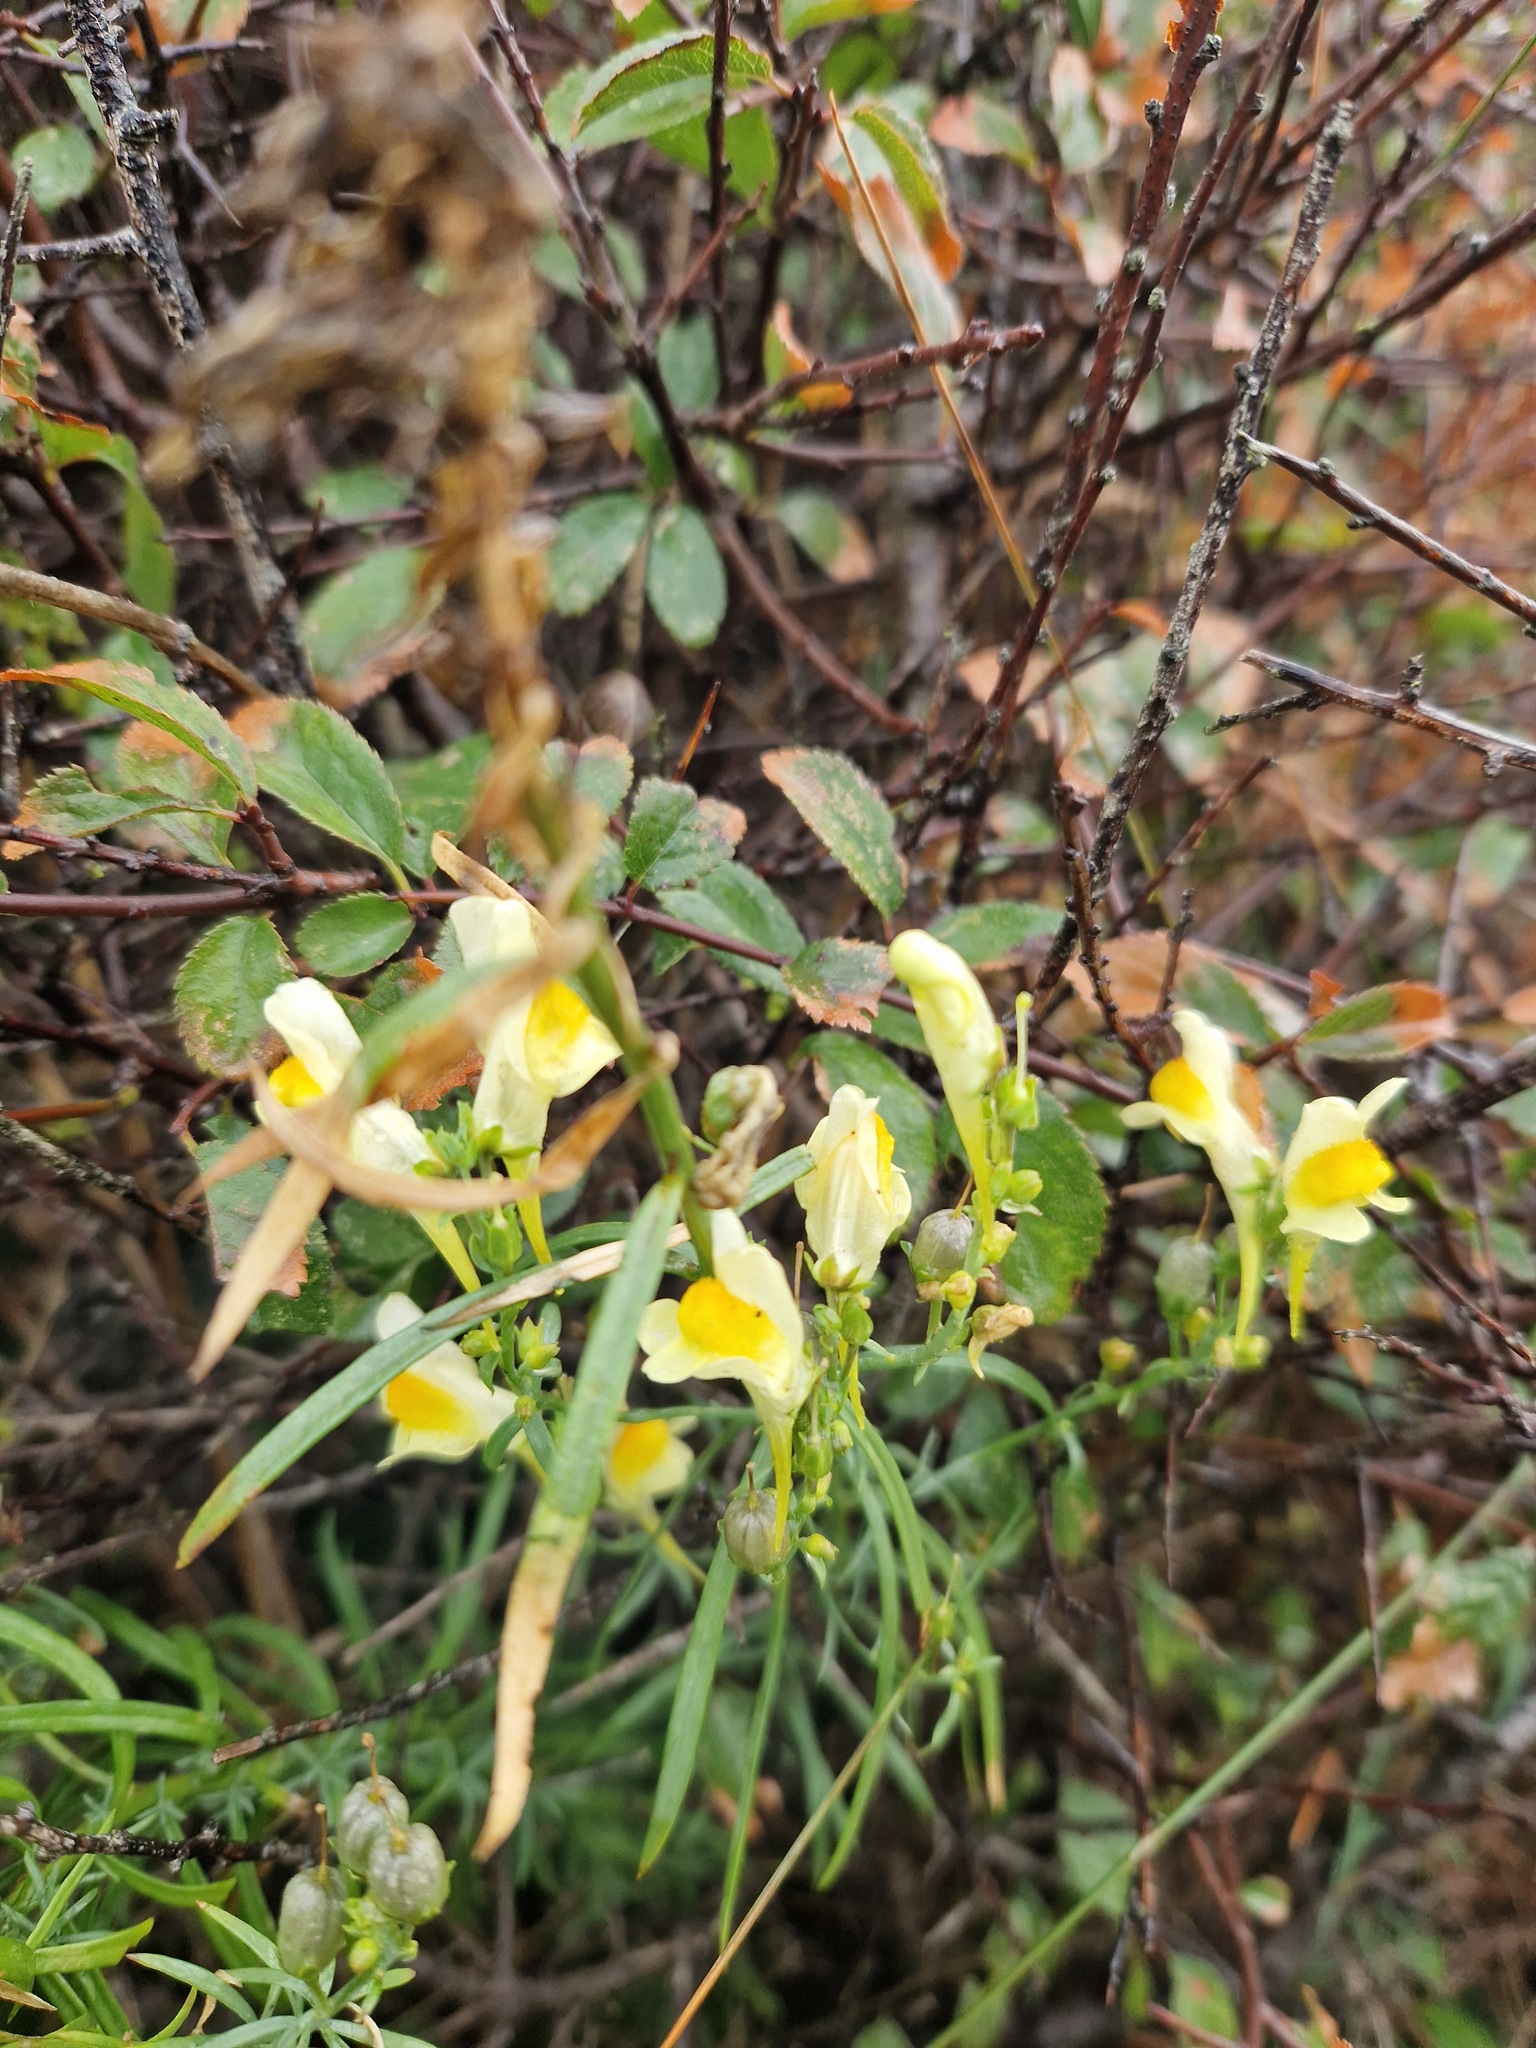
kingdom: Plantae
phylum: Tracheophyta
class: Magnoliopsida
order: Lamiales
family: Plantaginaceae
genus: Linaria
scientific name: Linaria vulgaris
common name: Butter and eggs
